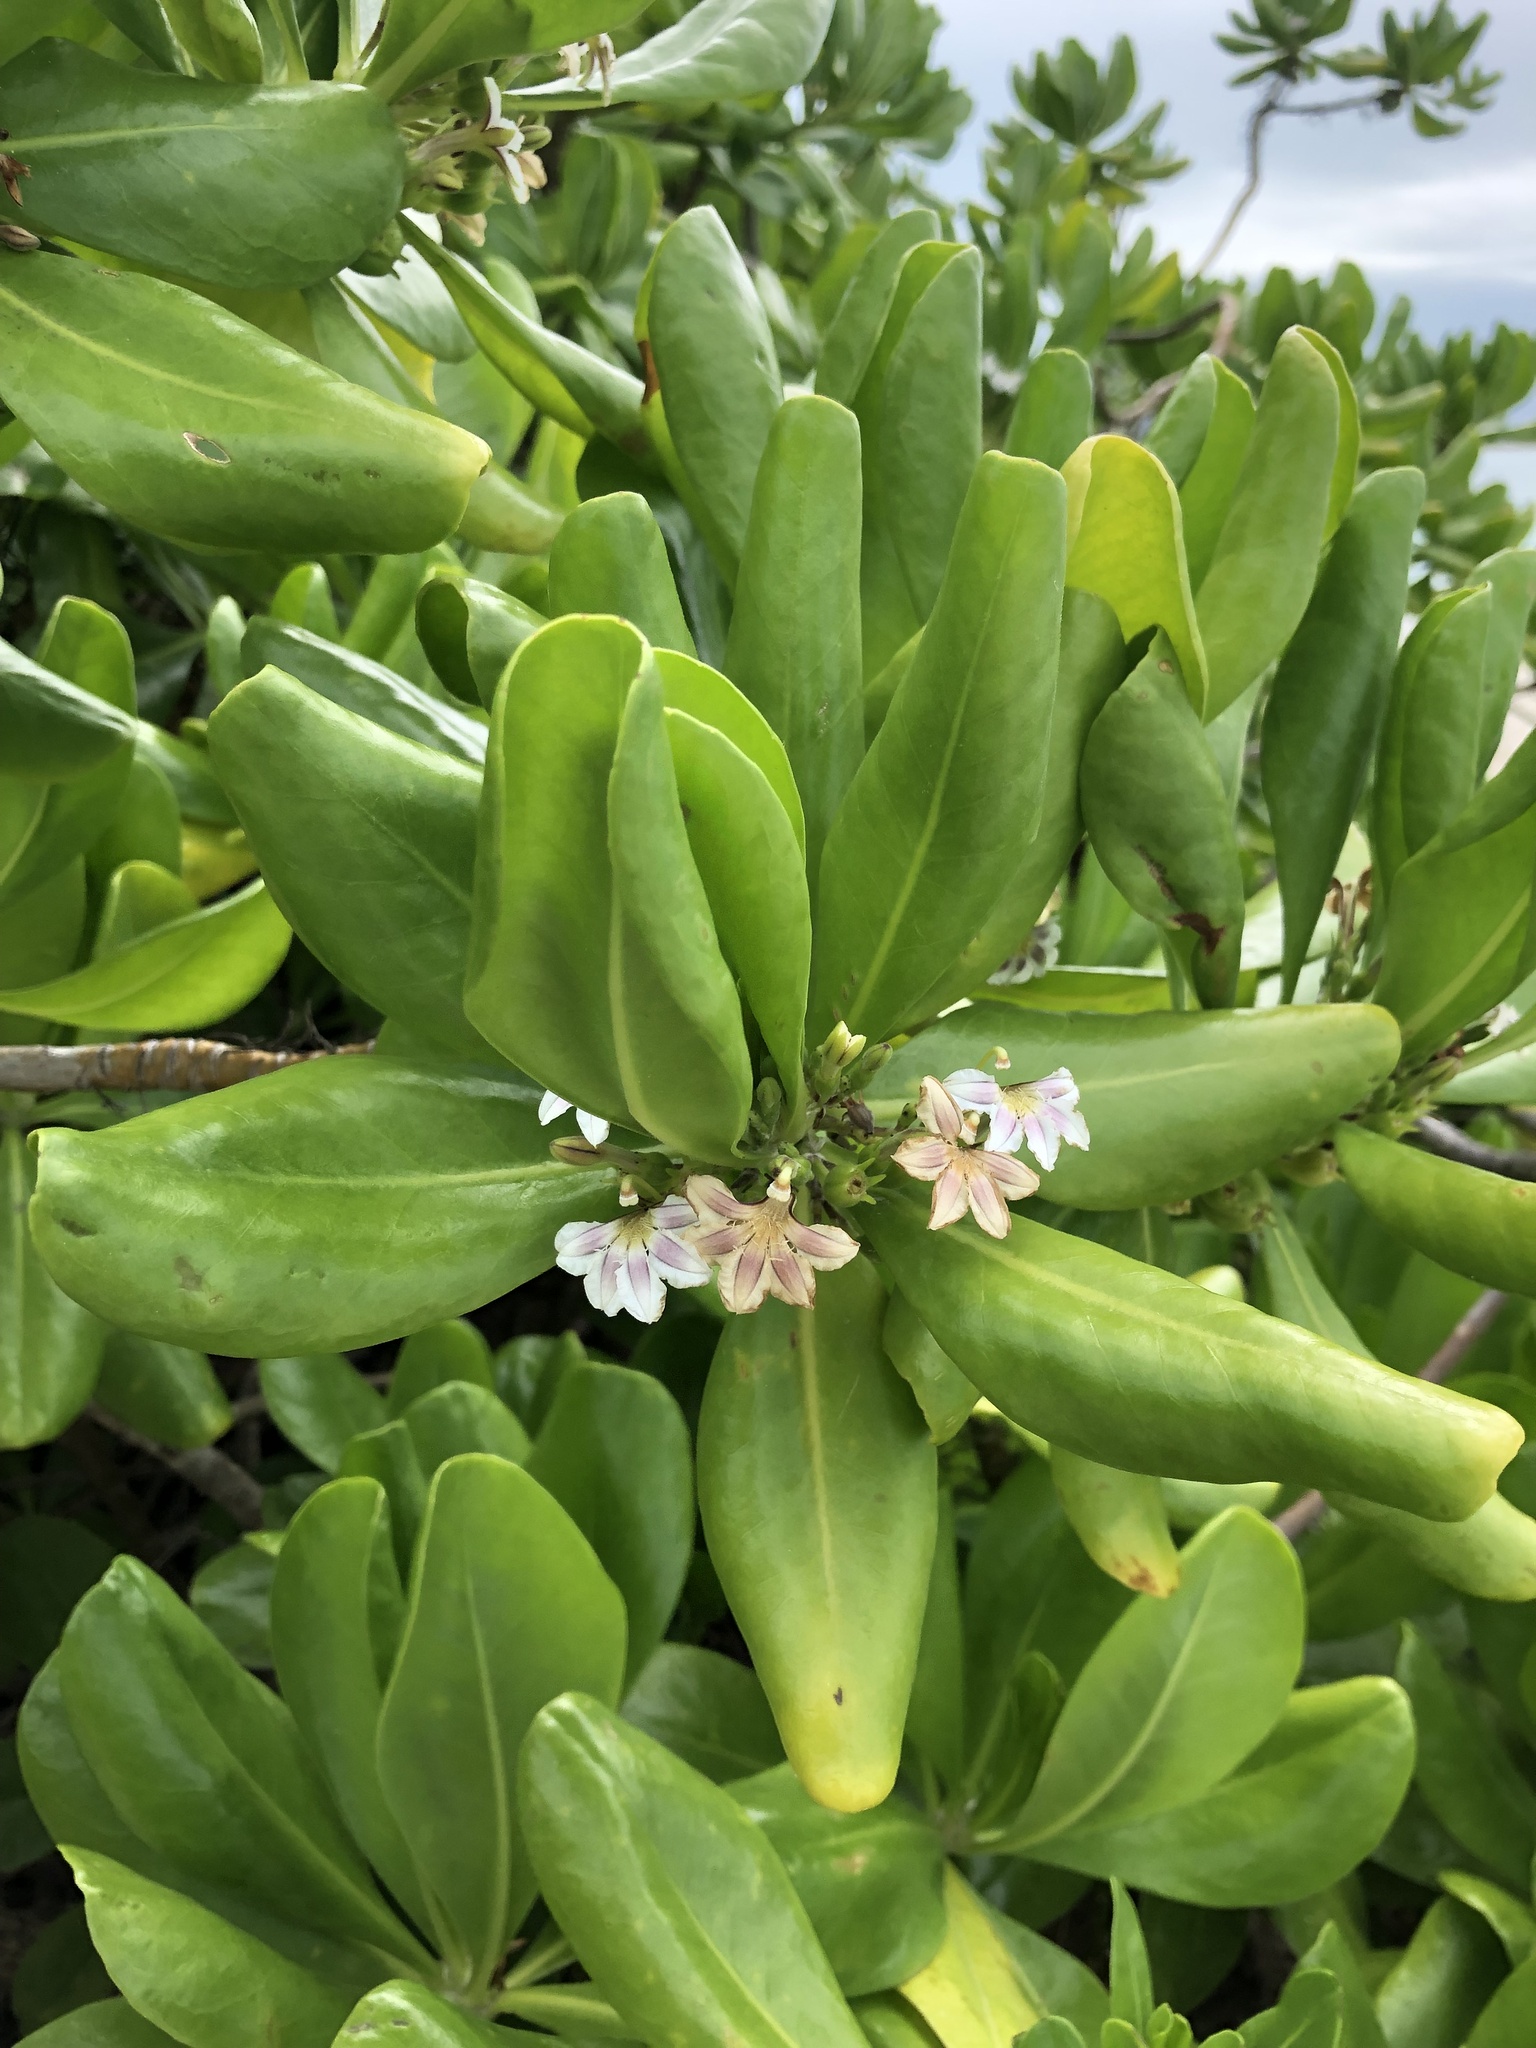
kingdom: Plantae
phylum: Tracheophyta
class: Magnoliopsida
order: Asterales
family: Goodeniaceae
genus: Scaevola
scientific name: Scaevola taccada
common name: Sea lettucetree
